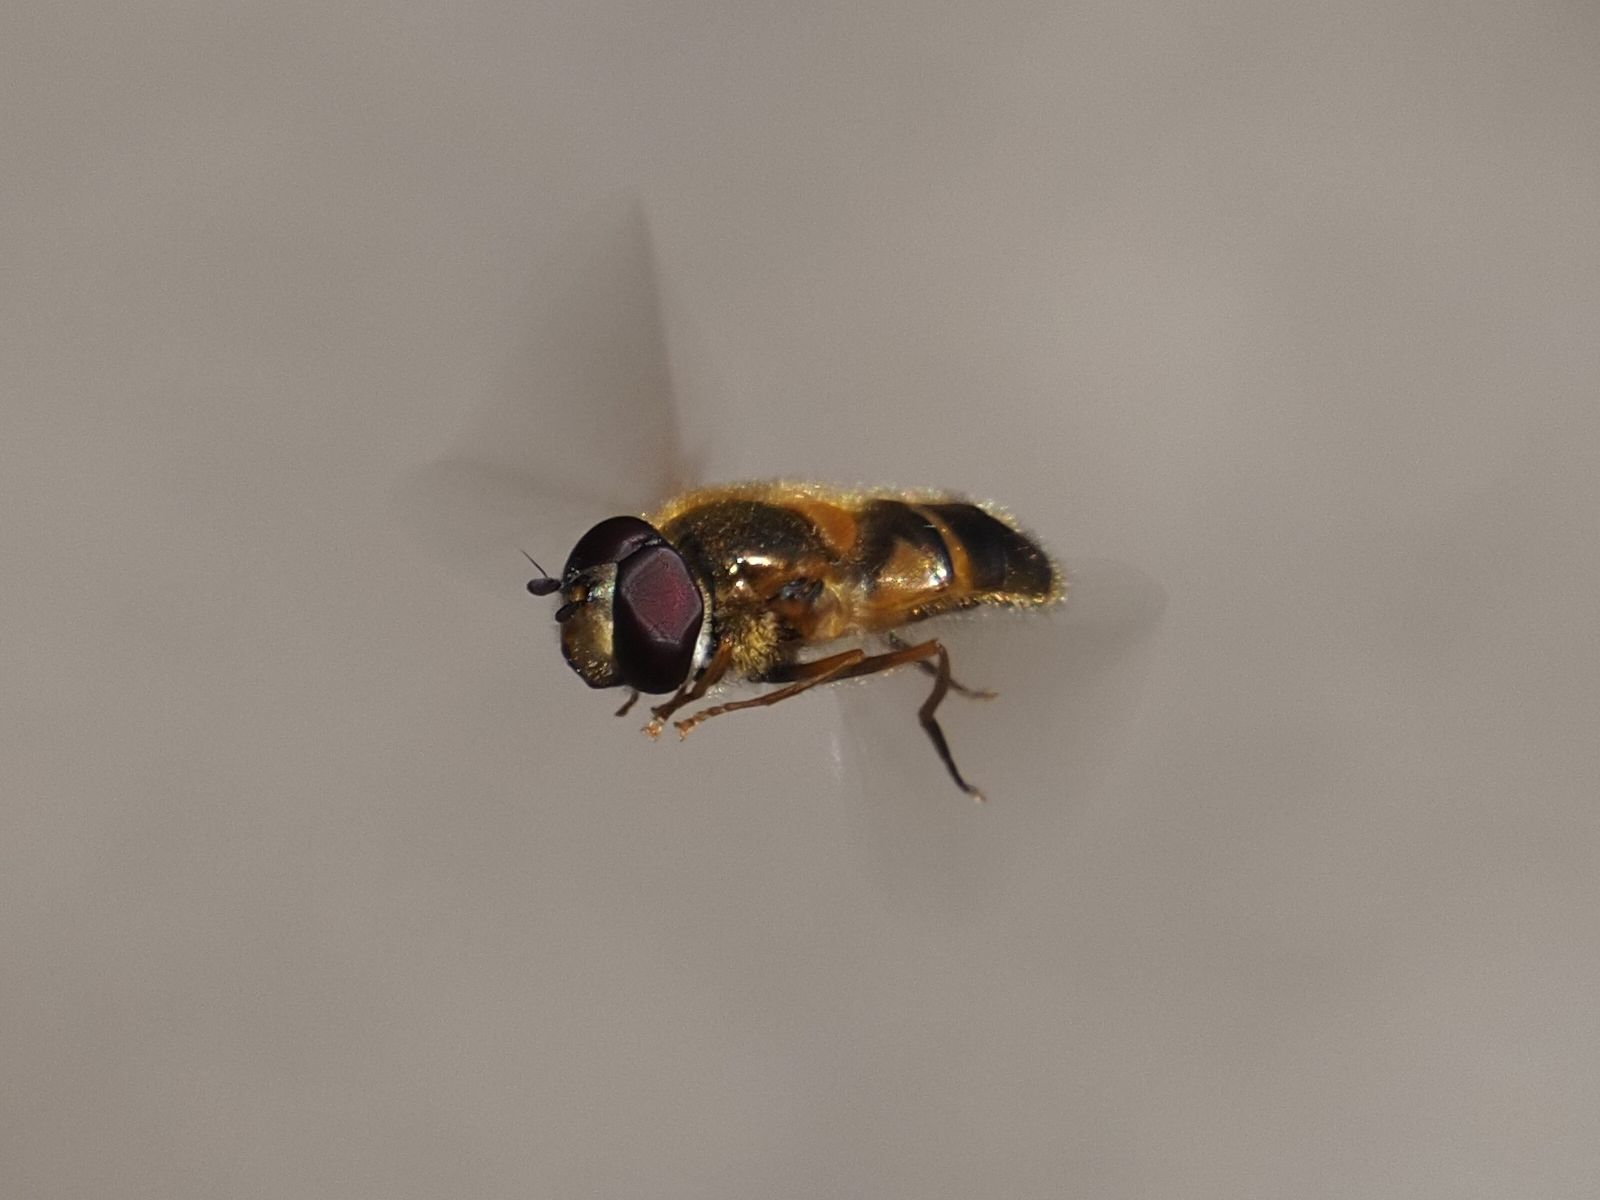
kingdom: Animalia
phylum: Arthropoda
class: Insecta
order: Diptera
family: Syrphidae
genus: Epistrophe
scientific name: Epistrophe eligans
